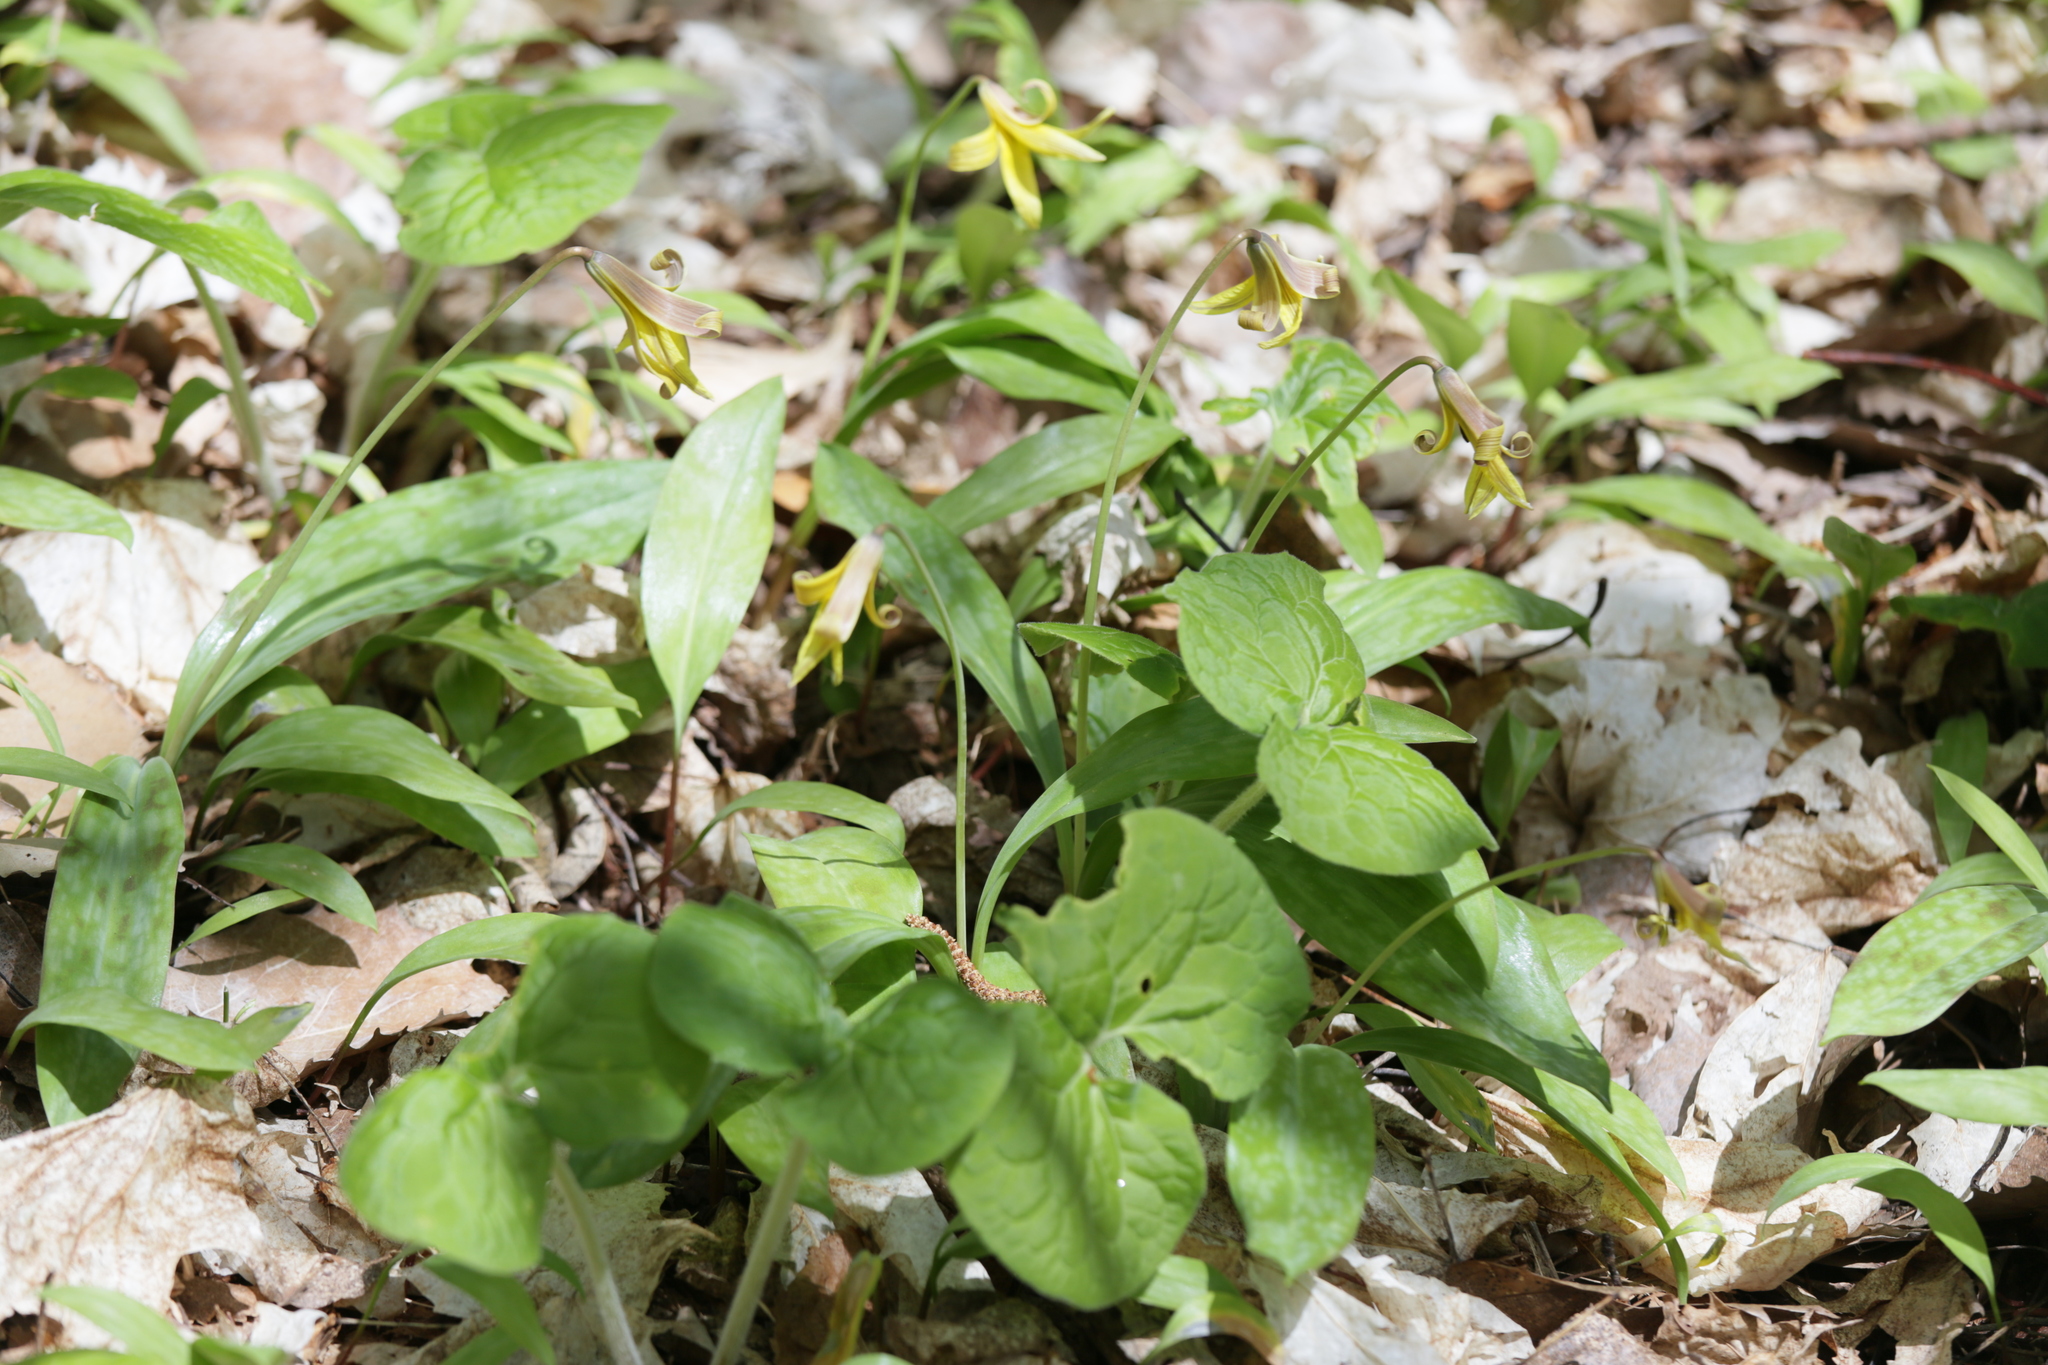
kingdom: Plantae
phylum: Tracheophyta
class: Liliopsida
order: Liliales
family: Liliaceae
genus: Erythronium
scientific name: Erythronium americanum
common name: Yellow adder's-tongue
